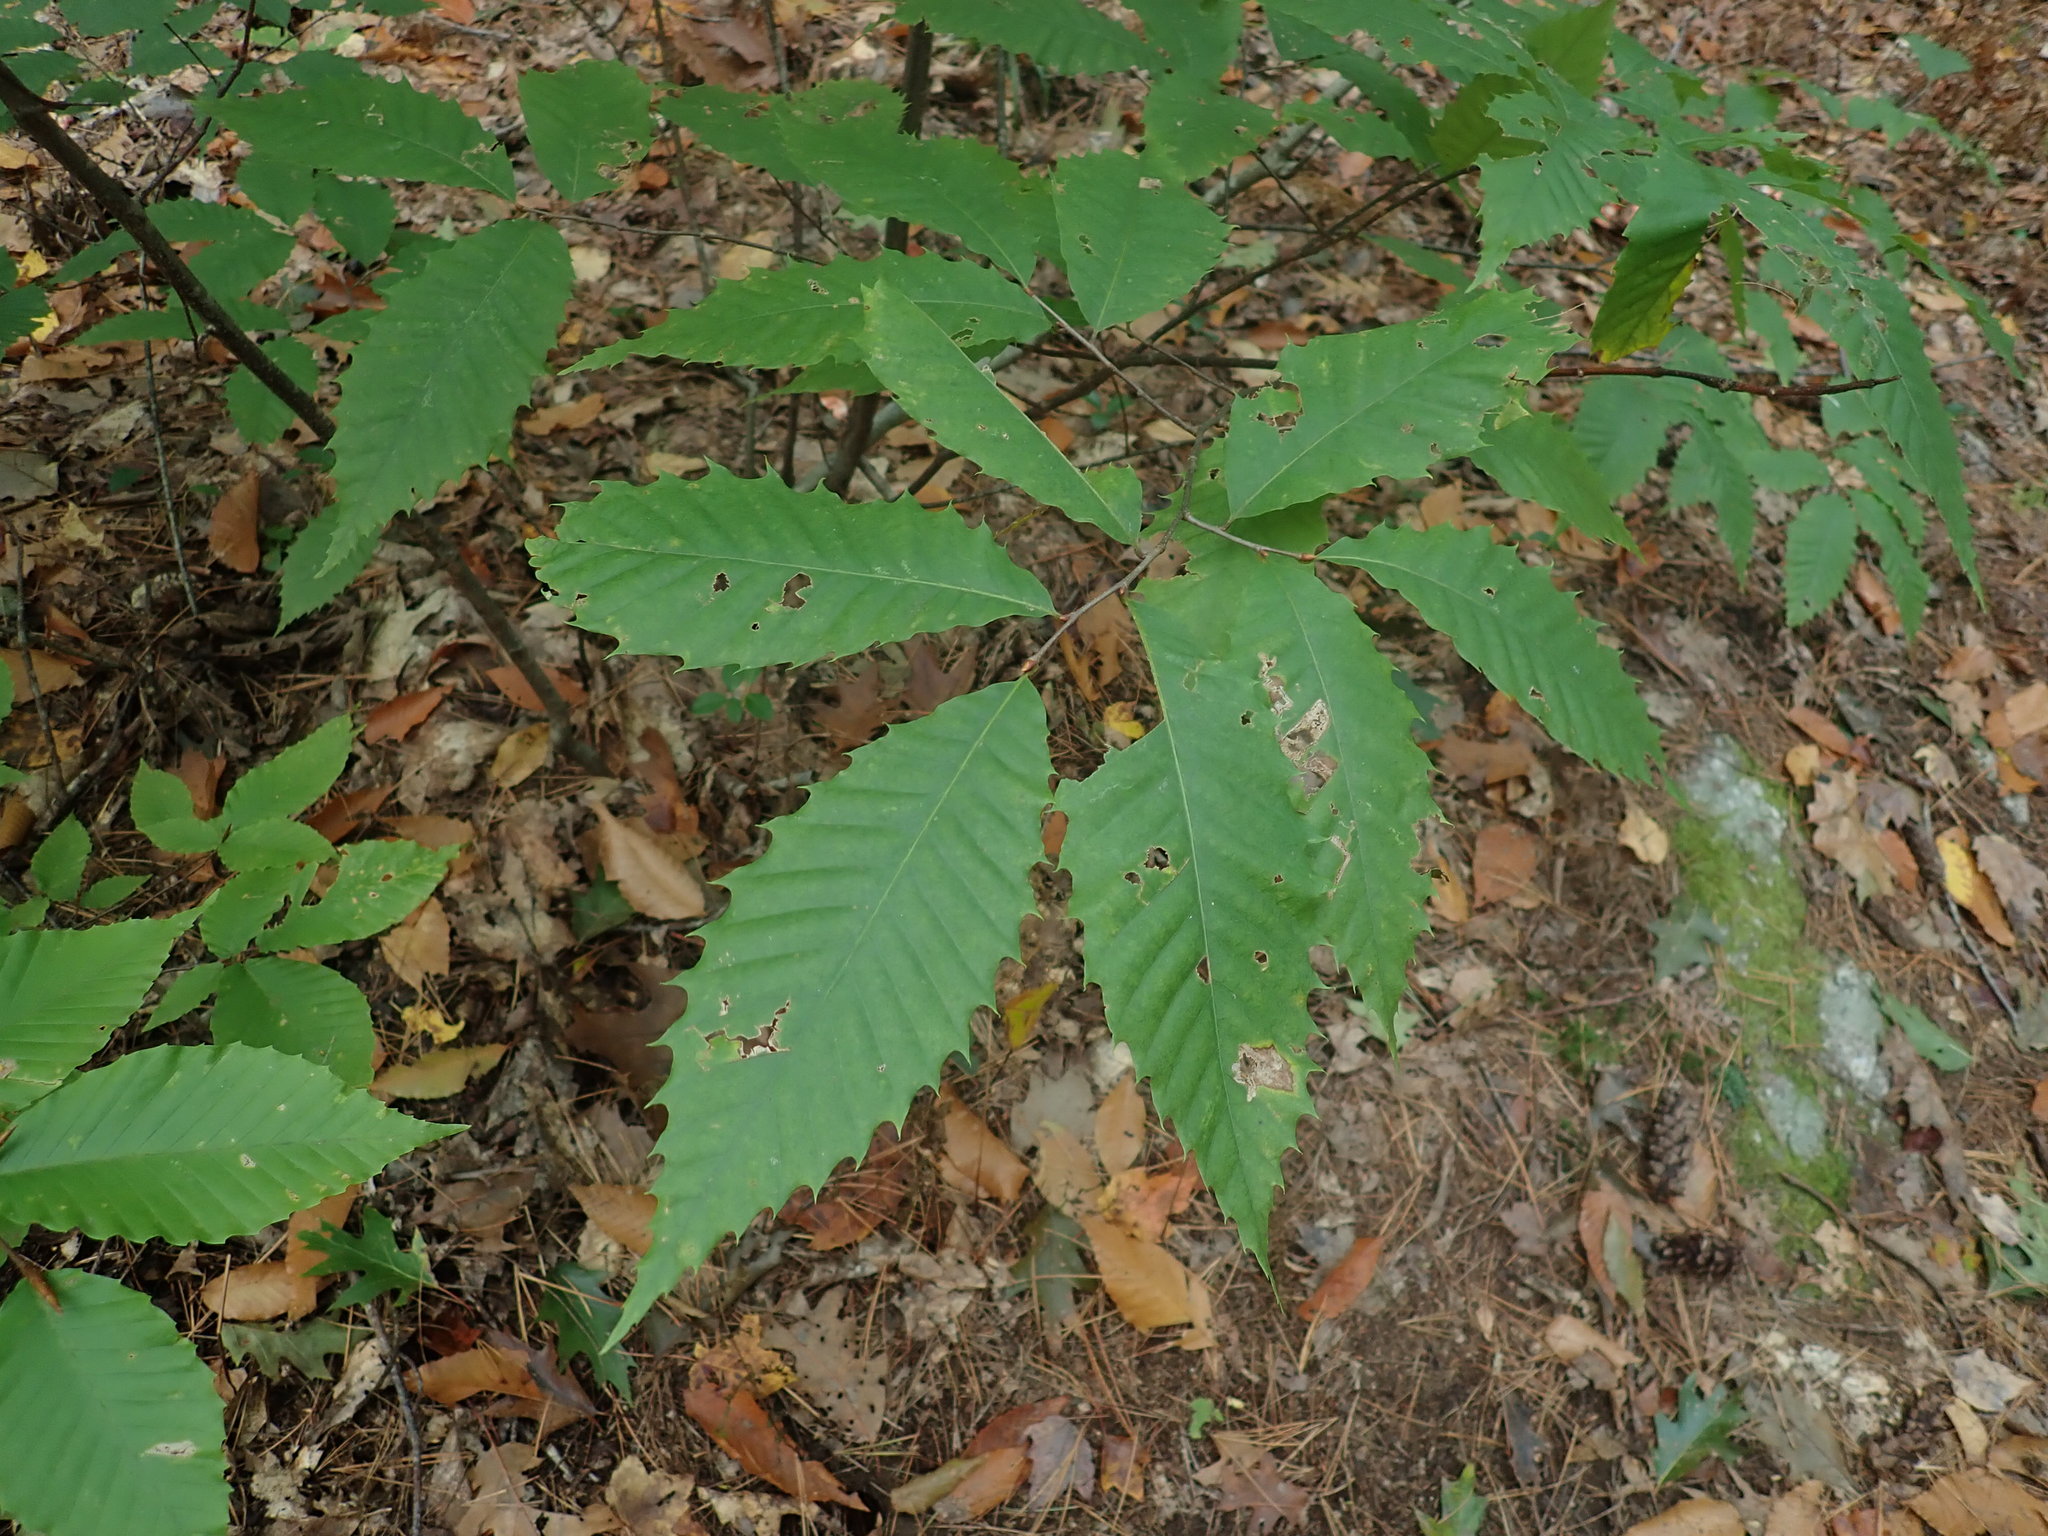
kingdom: Plantae
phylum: Tracheophyta
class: Magnoliopsida
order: Fagales
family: Fagaceae
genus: Castanea
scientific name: Castanea dentata
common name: American chestnut
